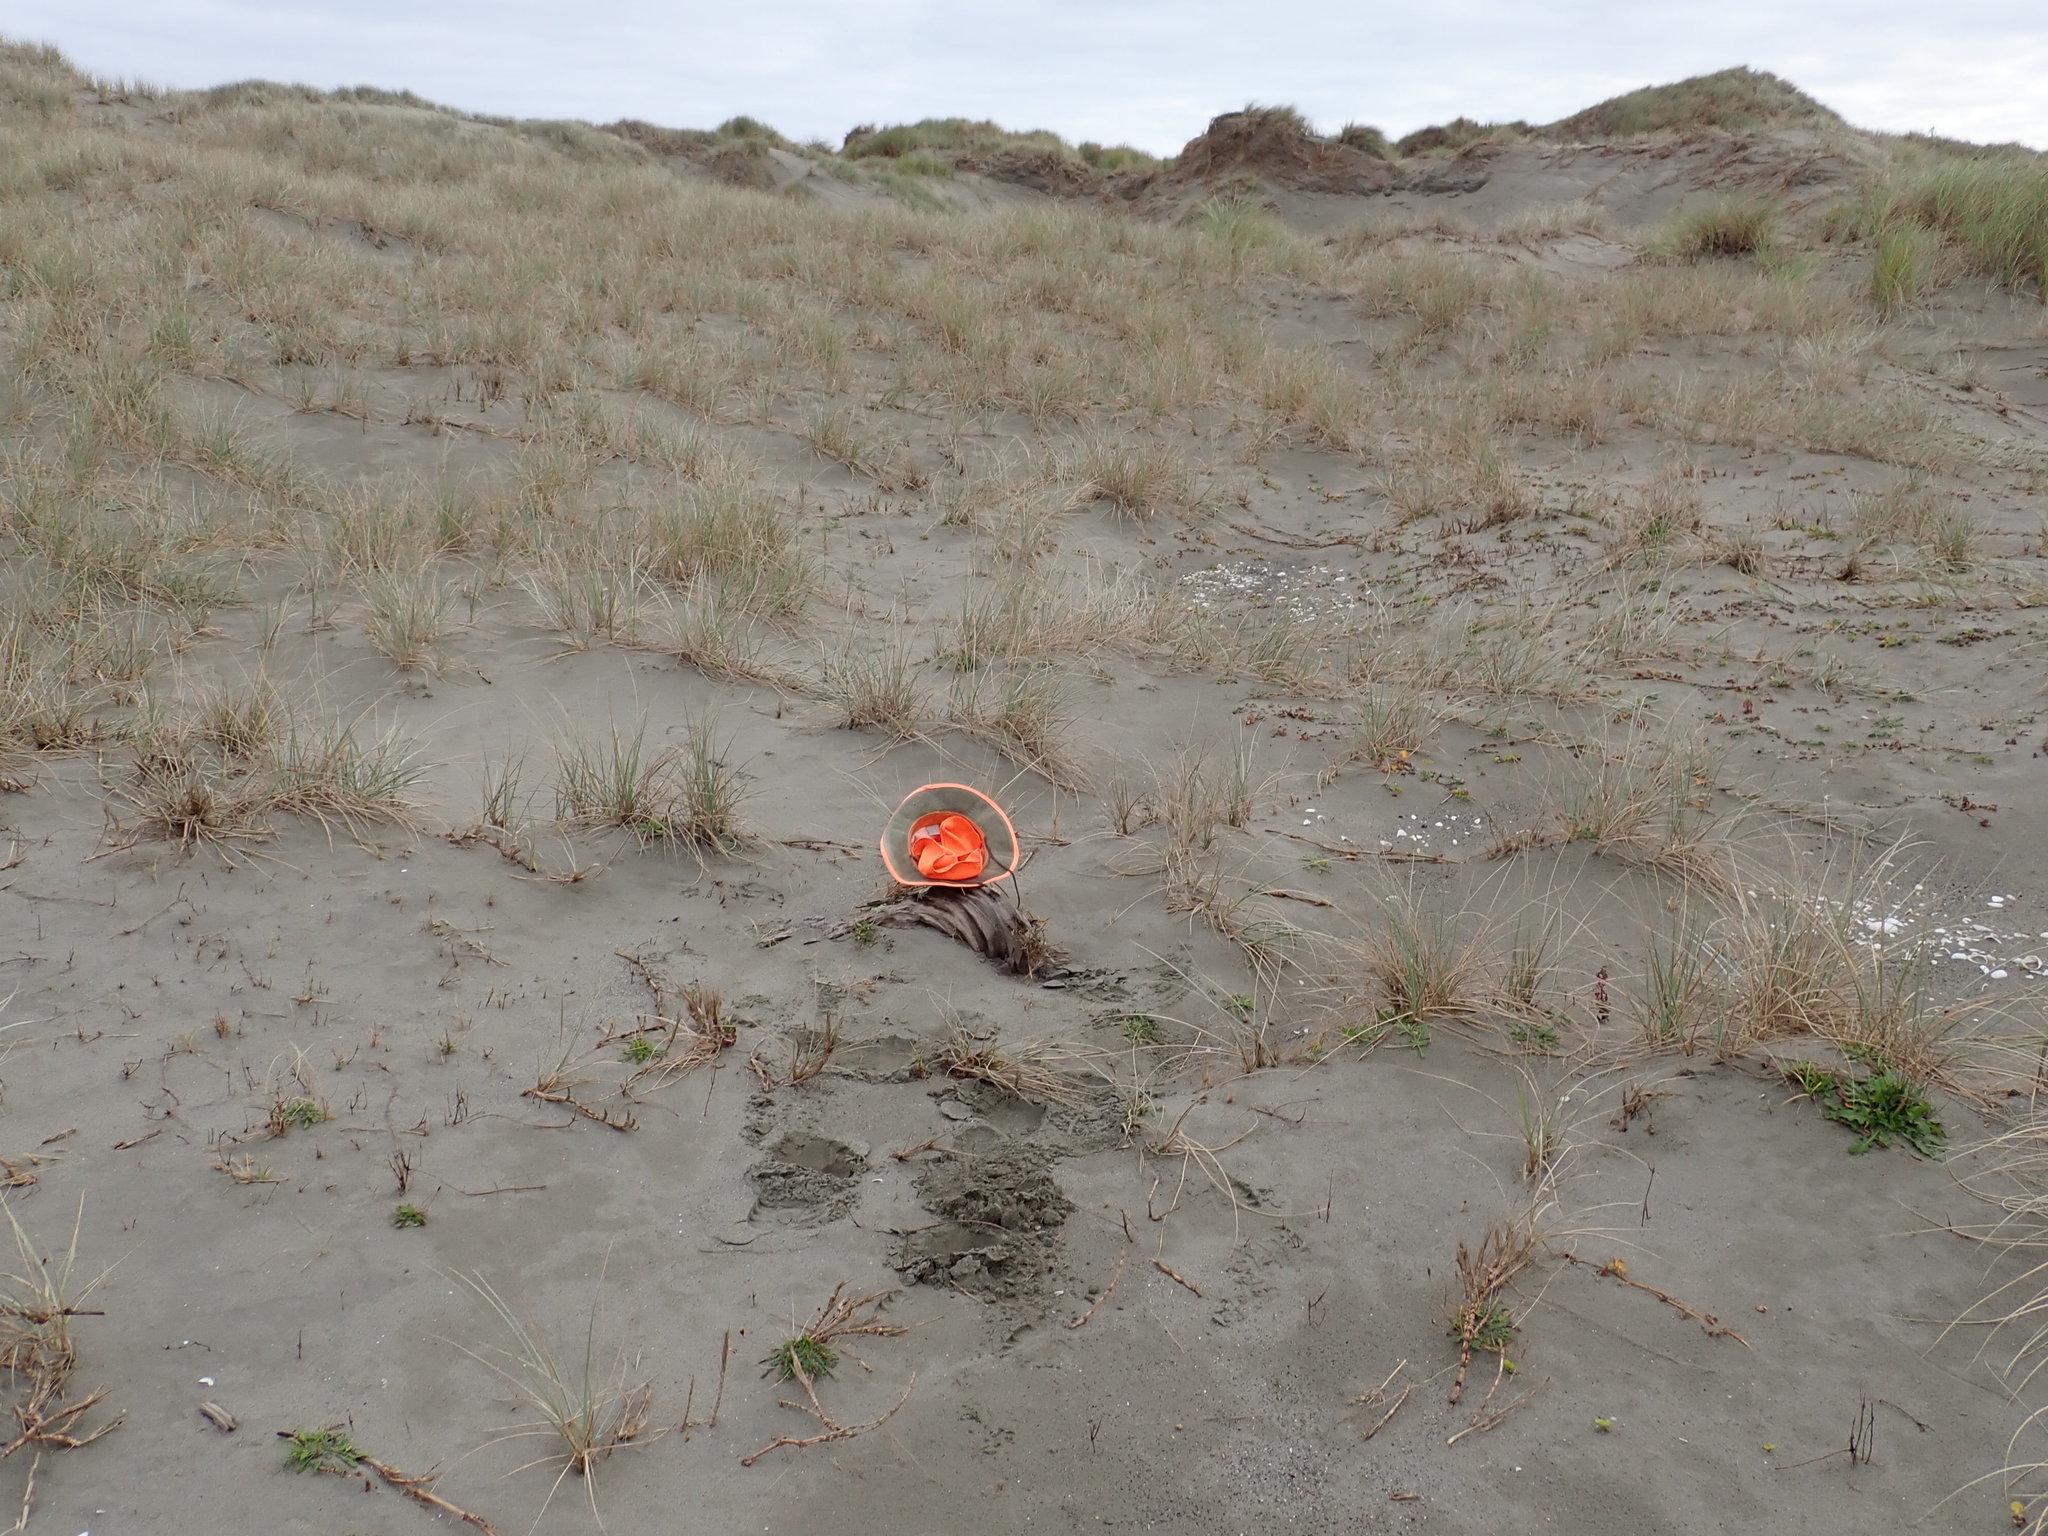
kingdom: Plantae
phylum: Tracheophyta
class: Magnoliopsida
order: Gentianales
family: Rubiaceae
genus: Coprosma
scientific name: Coprosma acerosa
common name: Sand coprosma
